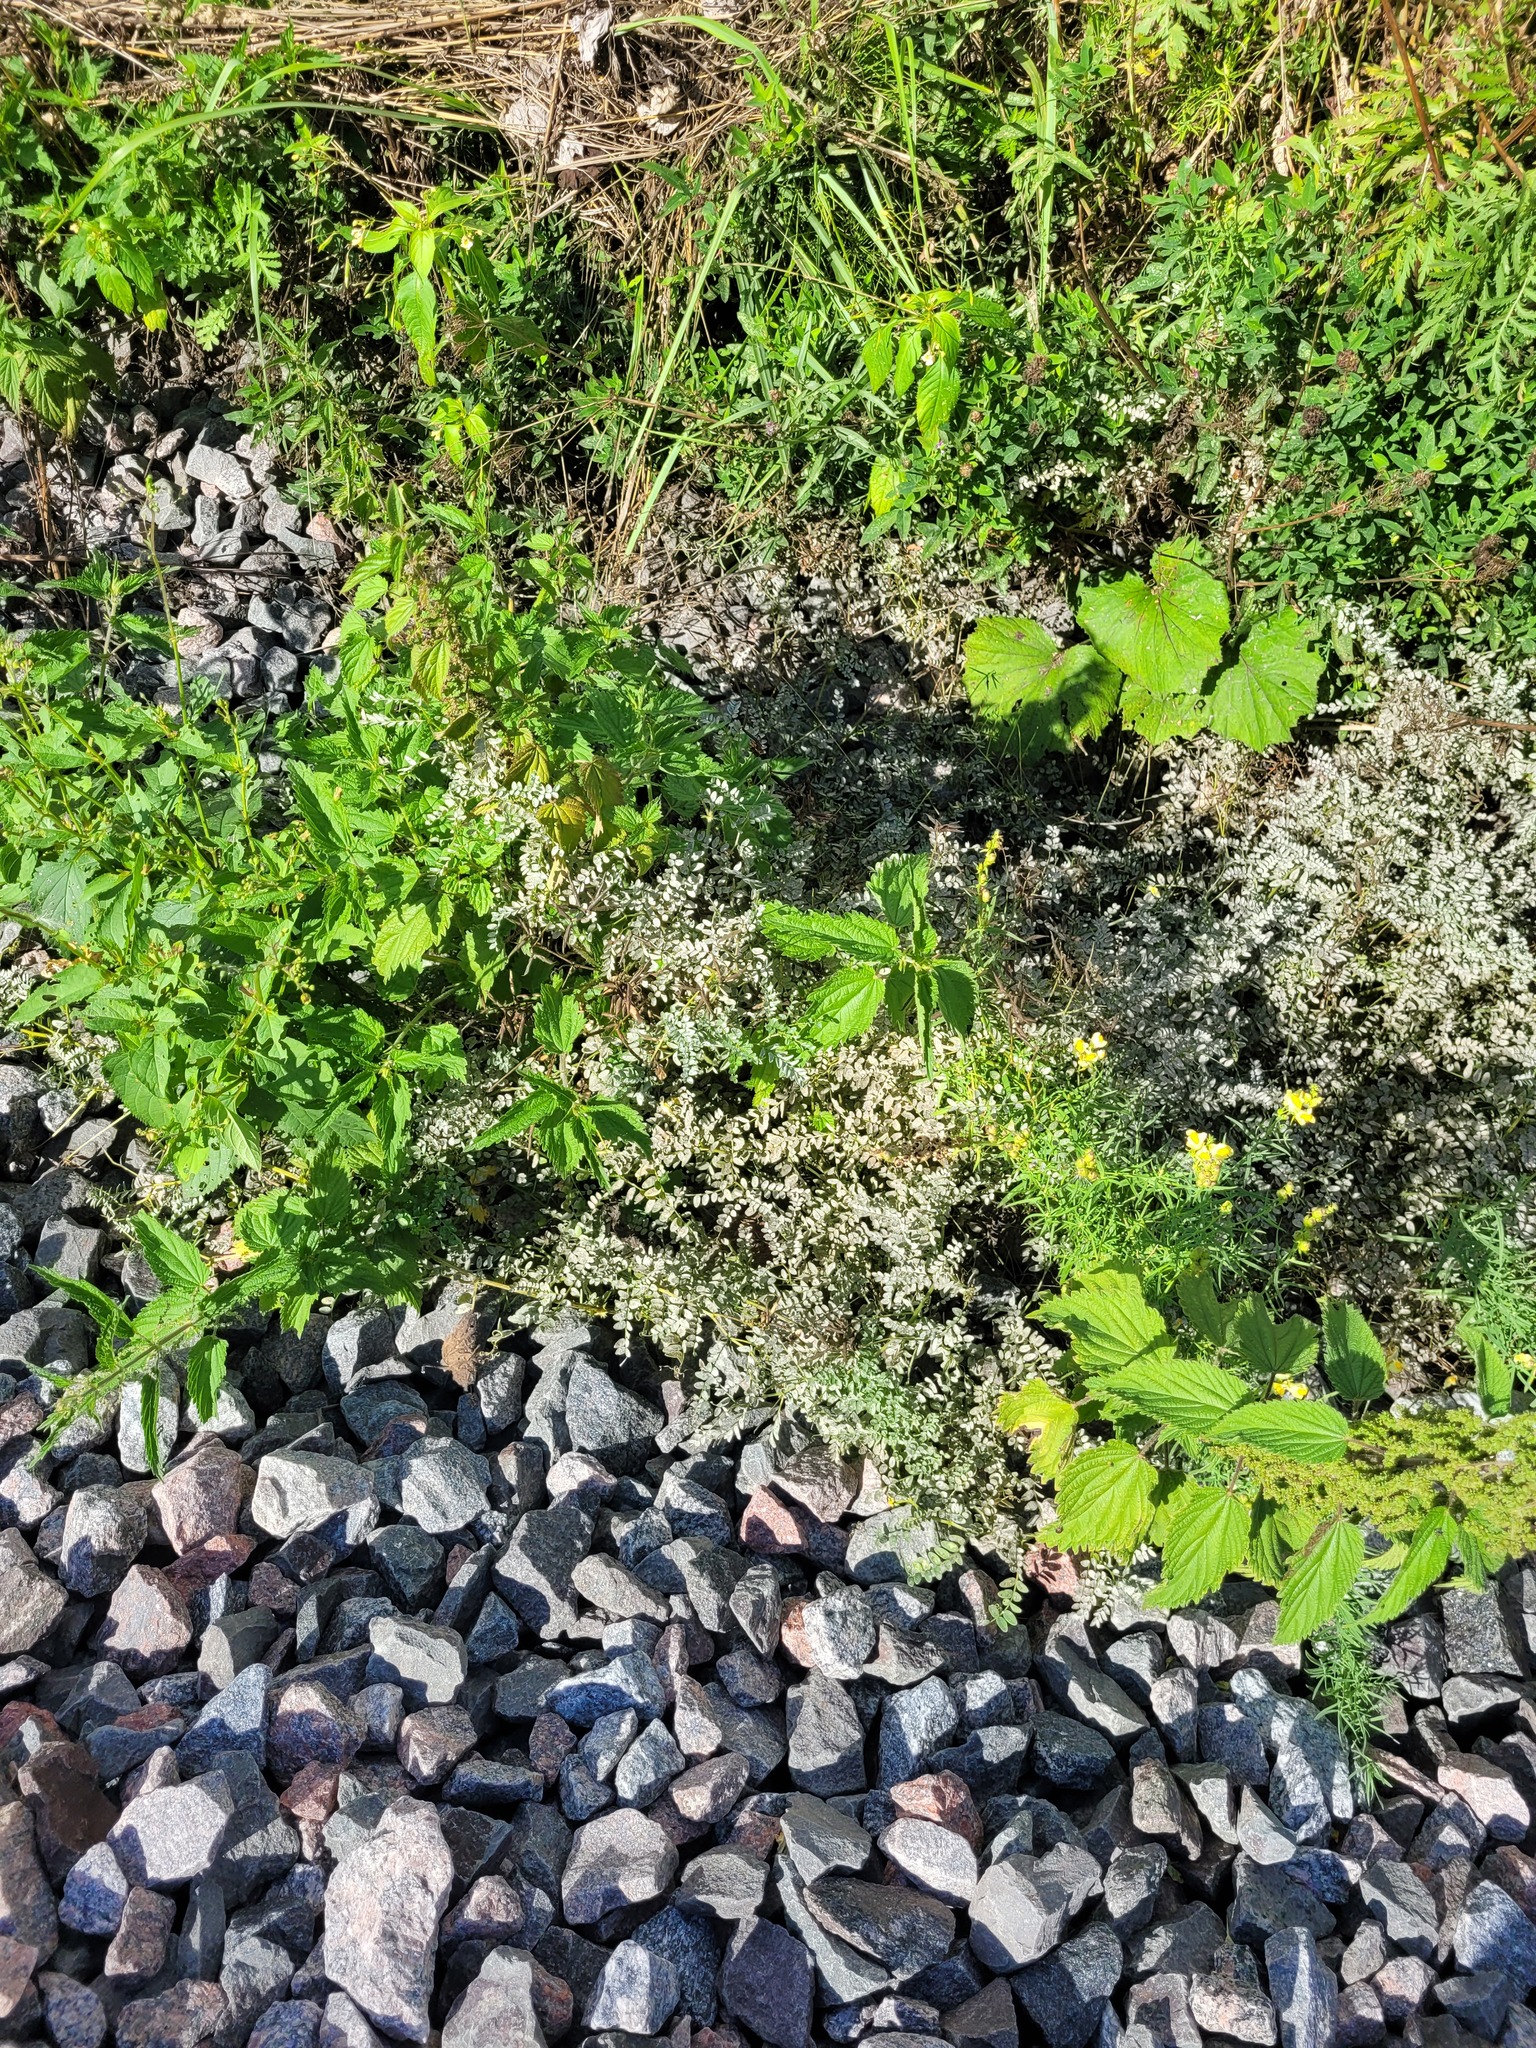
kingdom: Plantae
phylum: Tracheophyta
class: Magnoliopsida
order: Fabales
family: Fabaceae
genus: Vicia
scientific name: Vicia sylvatica
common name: Wood vetch
